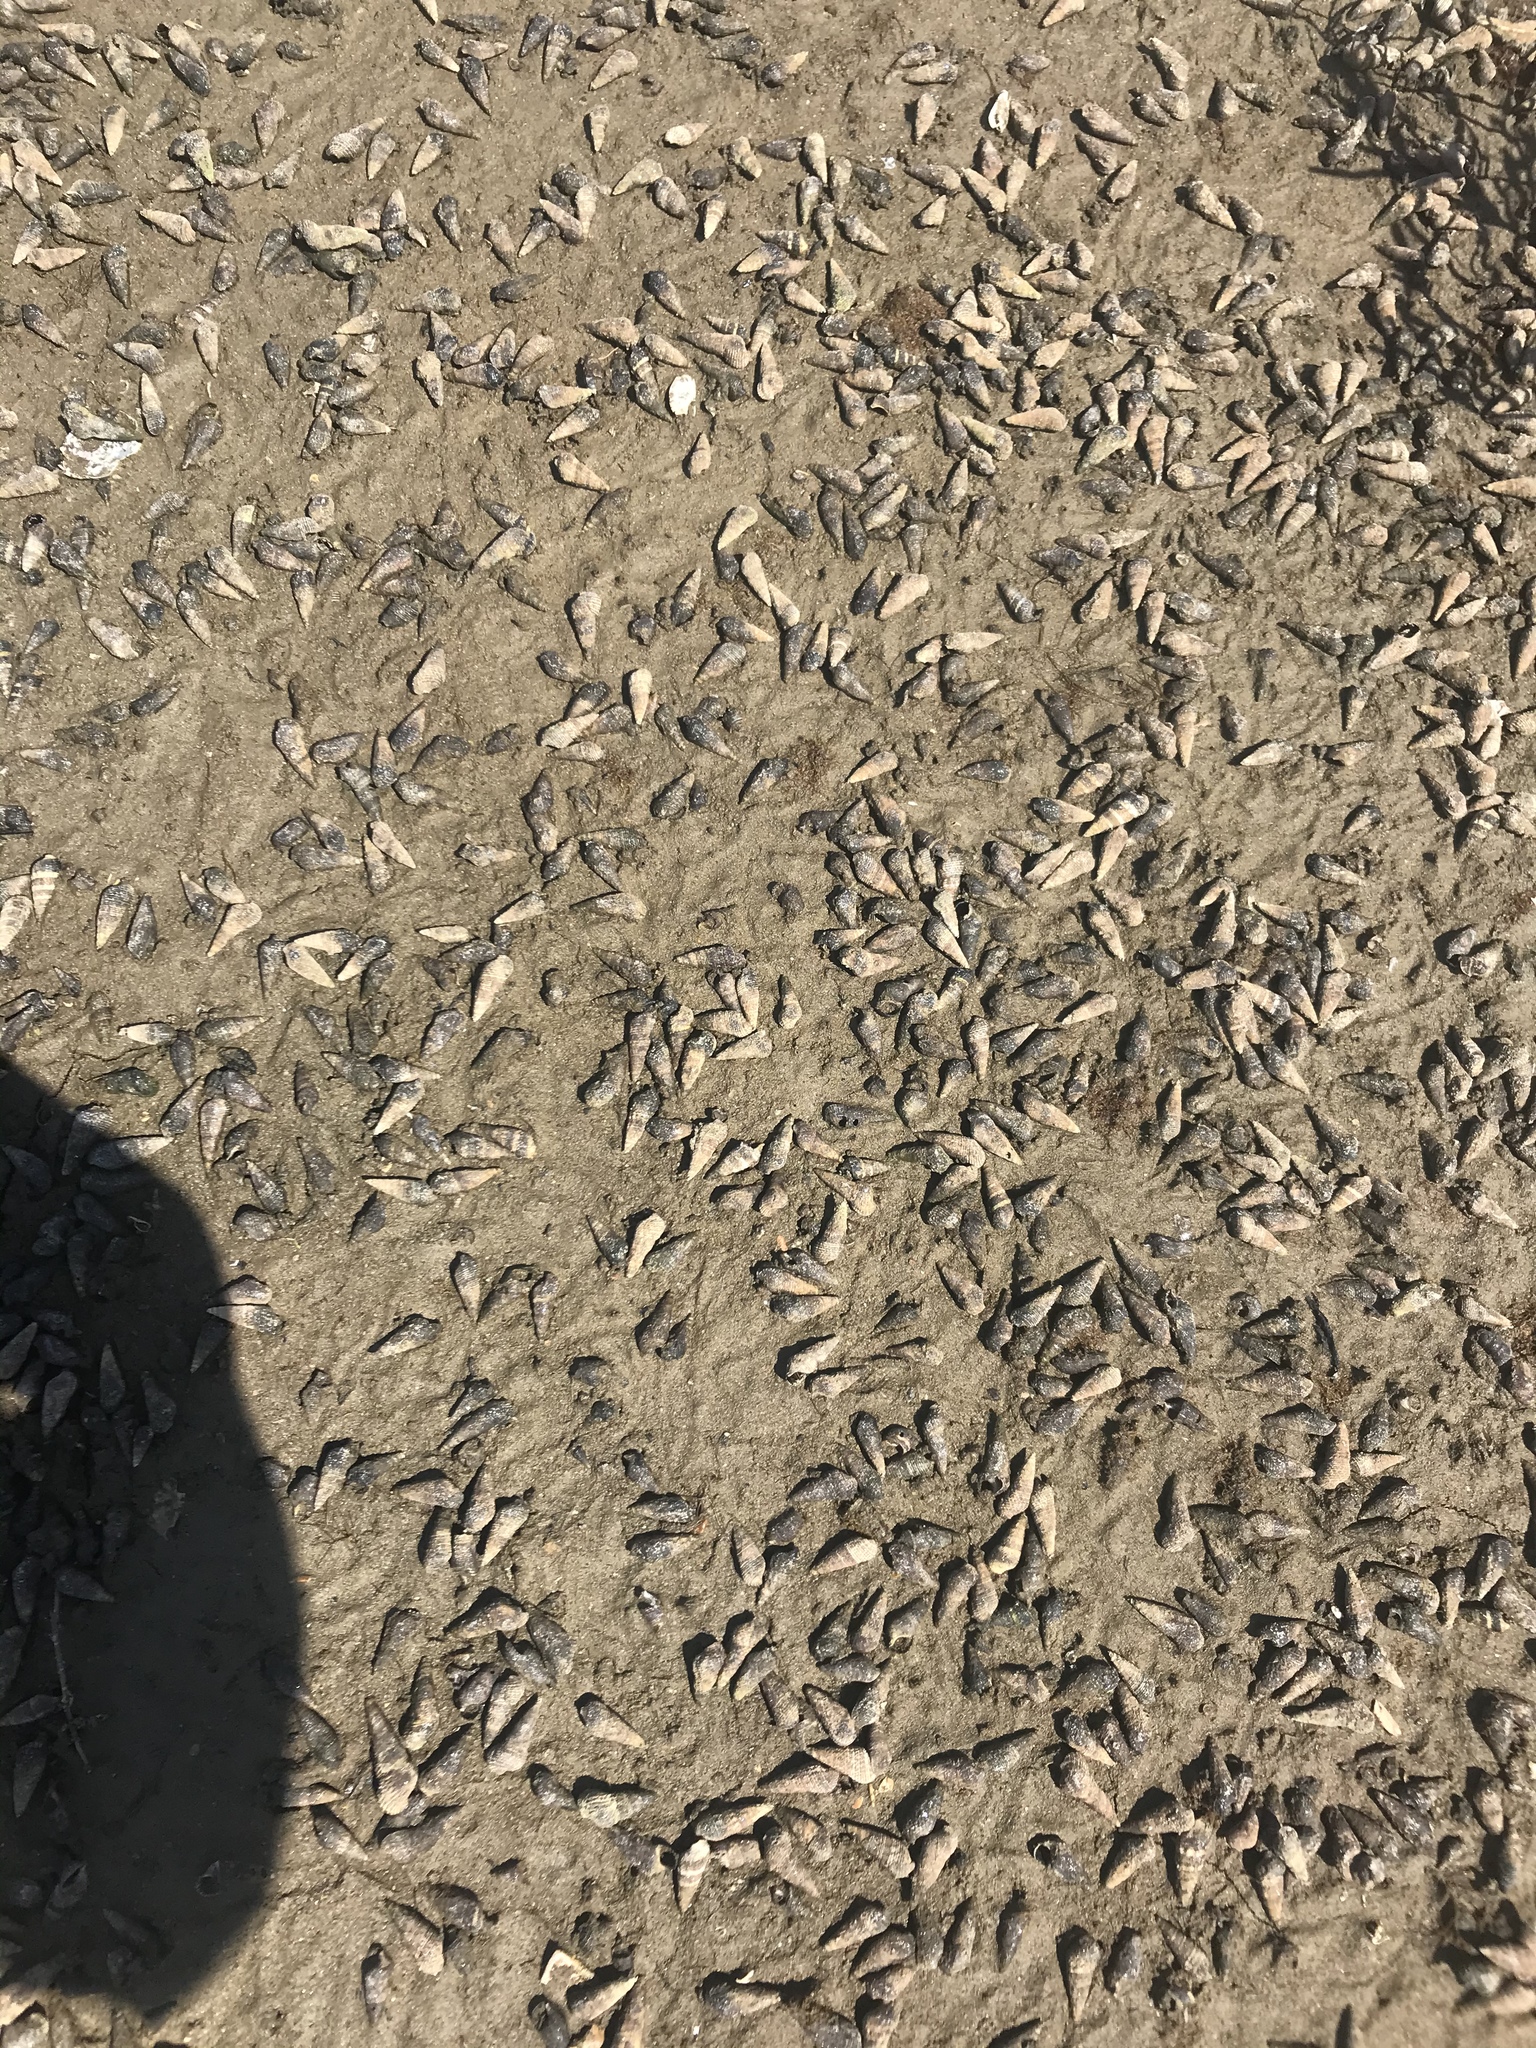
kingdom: Animalia
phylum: Mollusca
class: Gastropoda
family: Batillariidae
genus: Batillaria
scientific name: Batillaria attramentaria
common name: Japanese false cerith
